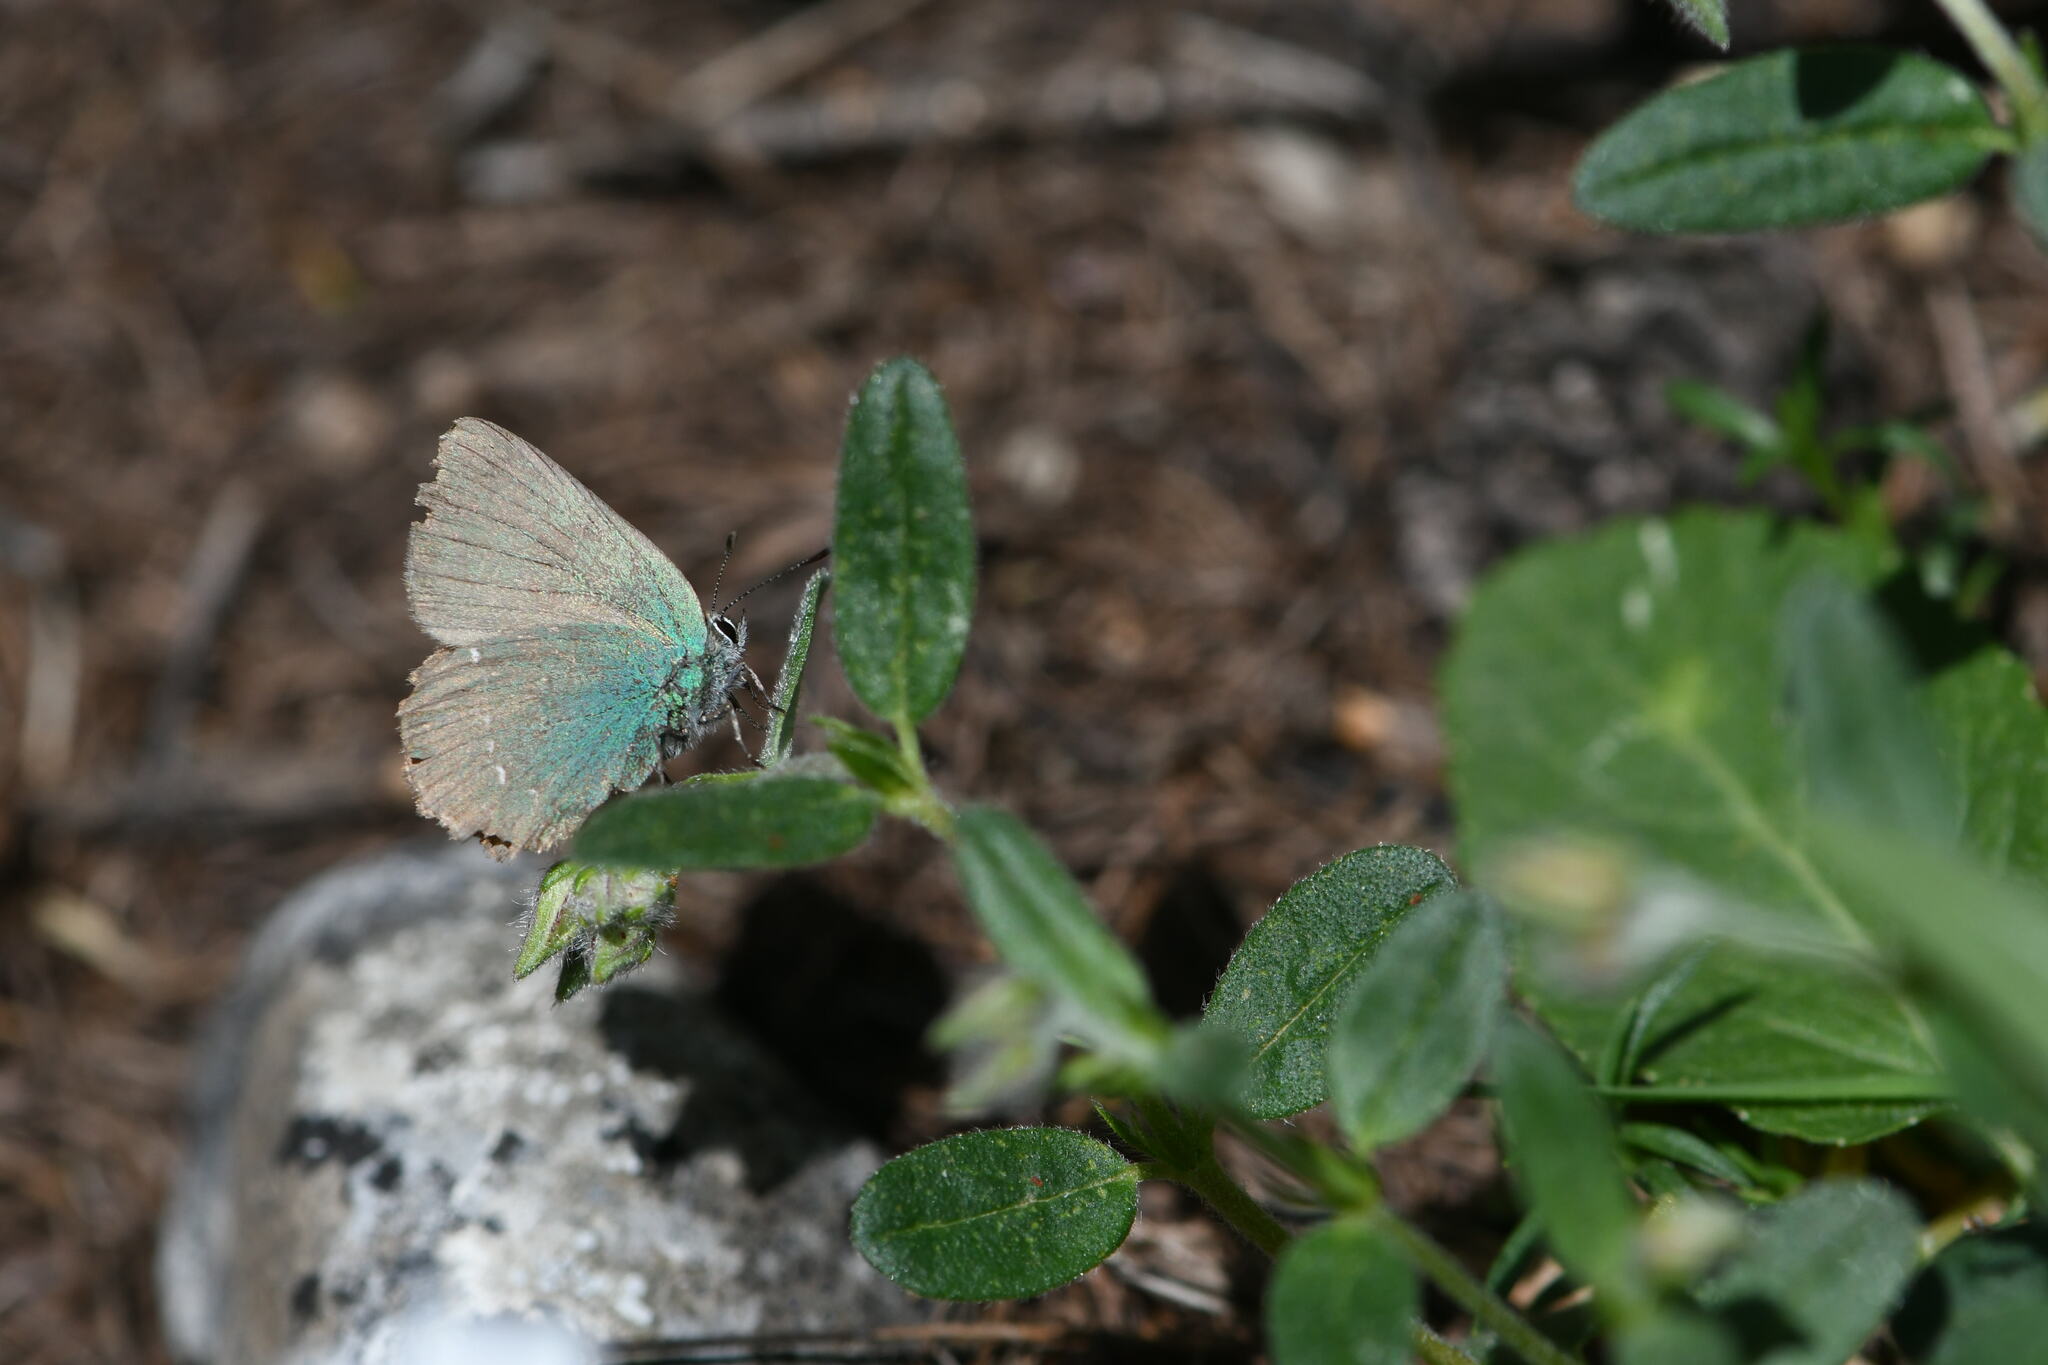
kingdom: Animalia
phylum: Arthropoda
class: Insecta
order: Lepidoptera
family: Lycaenidae
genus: Callophrys
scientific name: Callophrys rubi
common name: Green hairstreak
